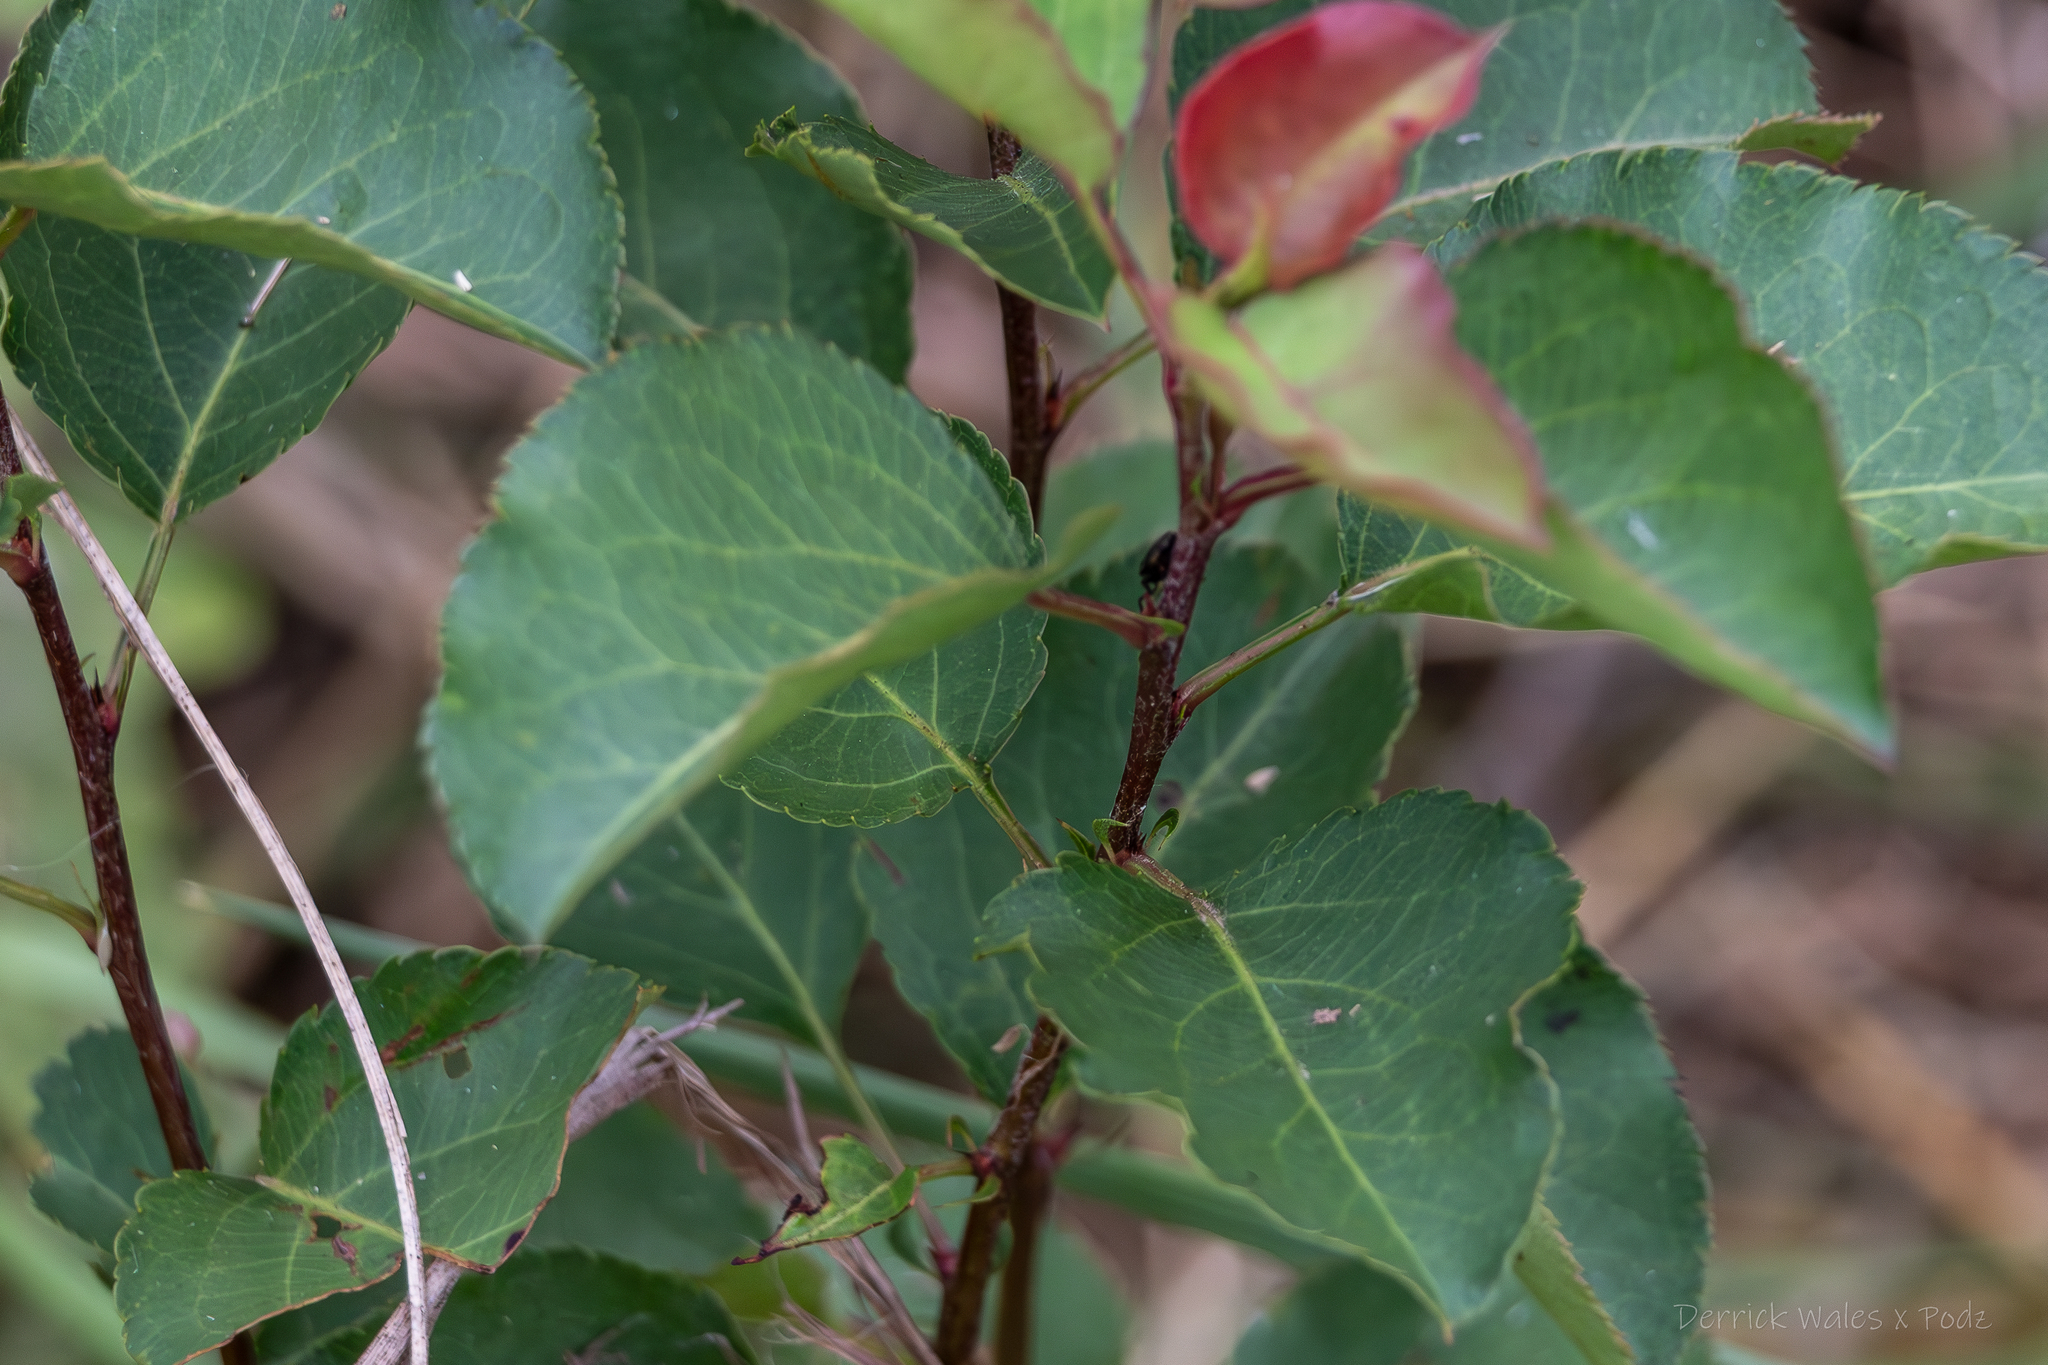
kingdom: Plantae
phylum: Tracheophyta
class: Magnoliopsida
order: Rosales
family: Rosaceae
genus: Pyrus
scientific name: Pyrus calleryana
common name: Callery pear
